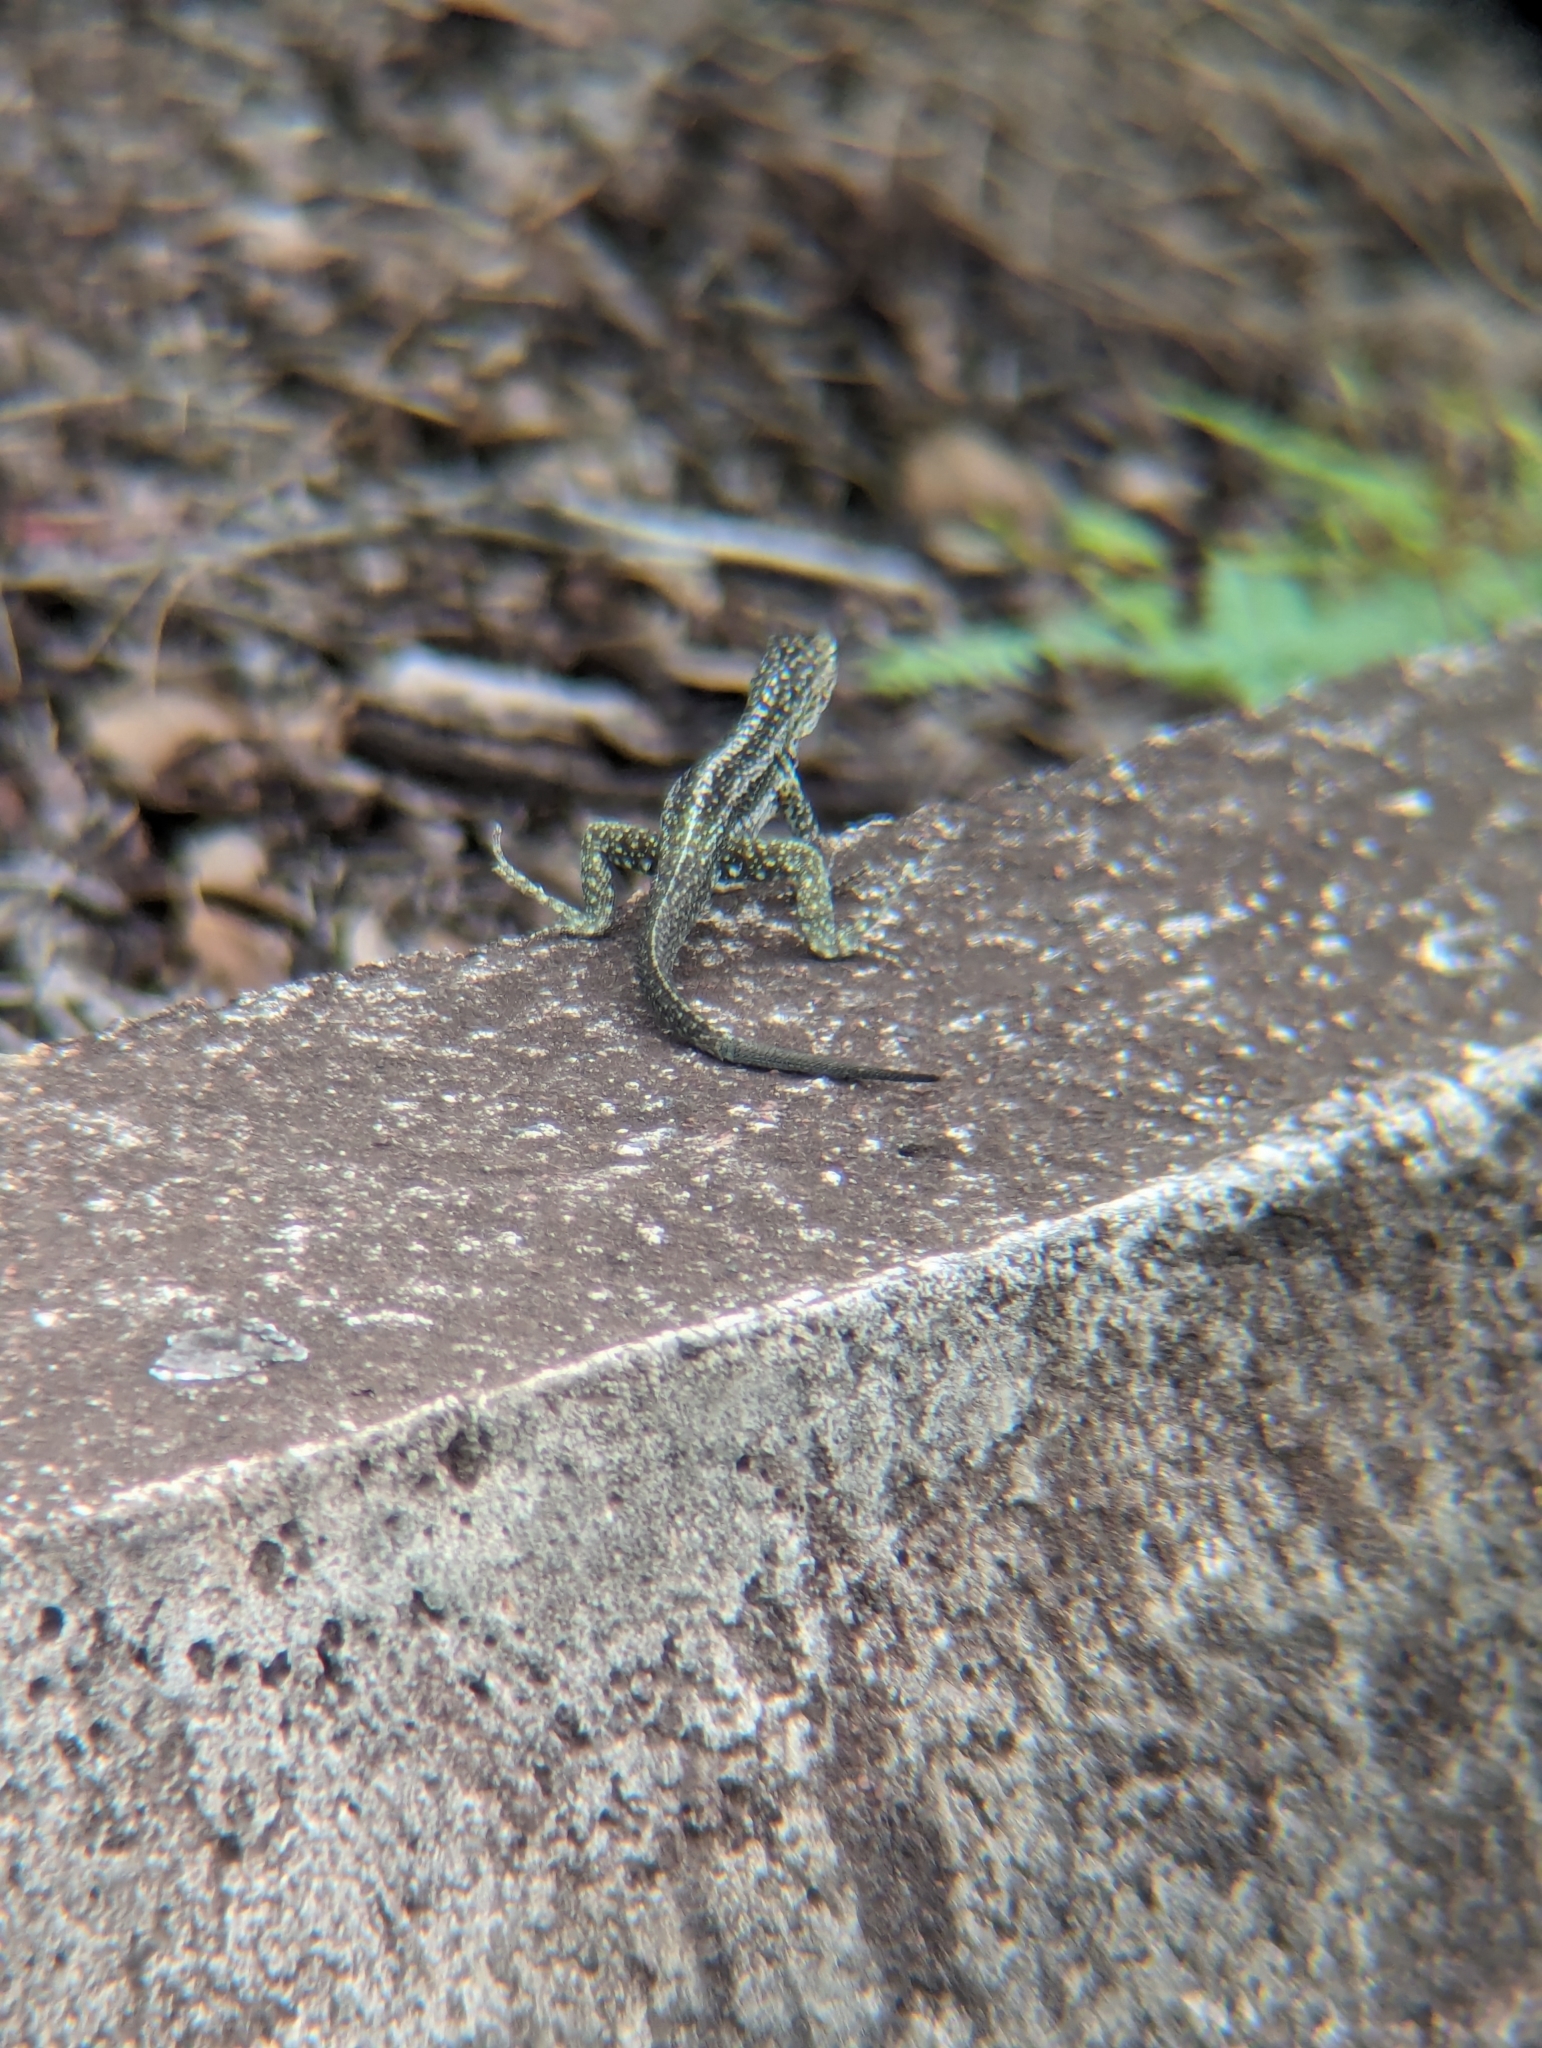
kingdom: Animalia
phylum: Chordata
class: Squamata
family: Tropiduridae
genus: Microlophus
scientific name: Microlophus indefatigabilis
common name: Galapagos lava lizard
